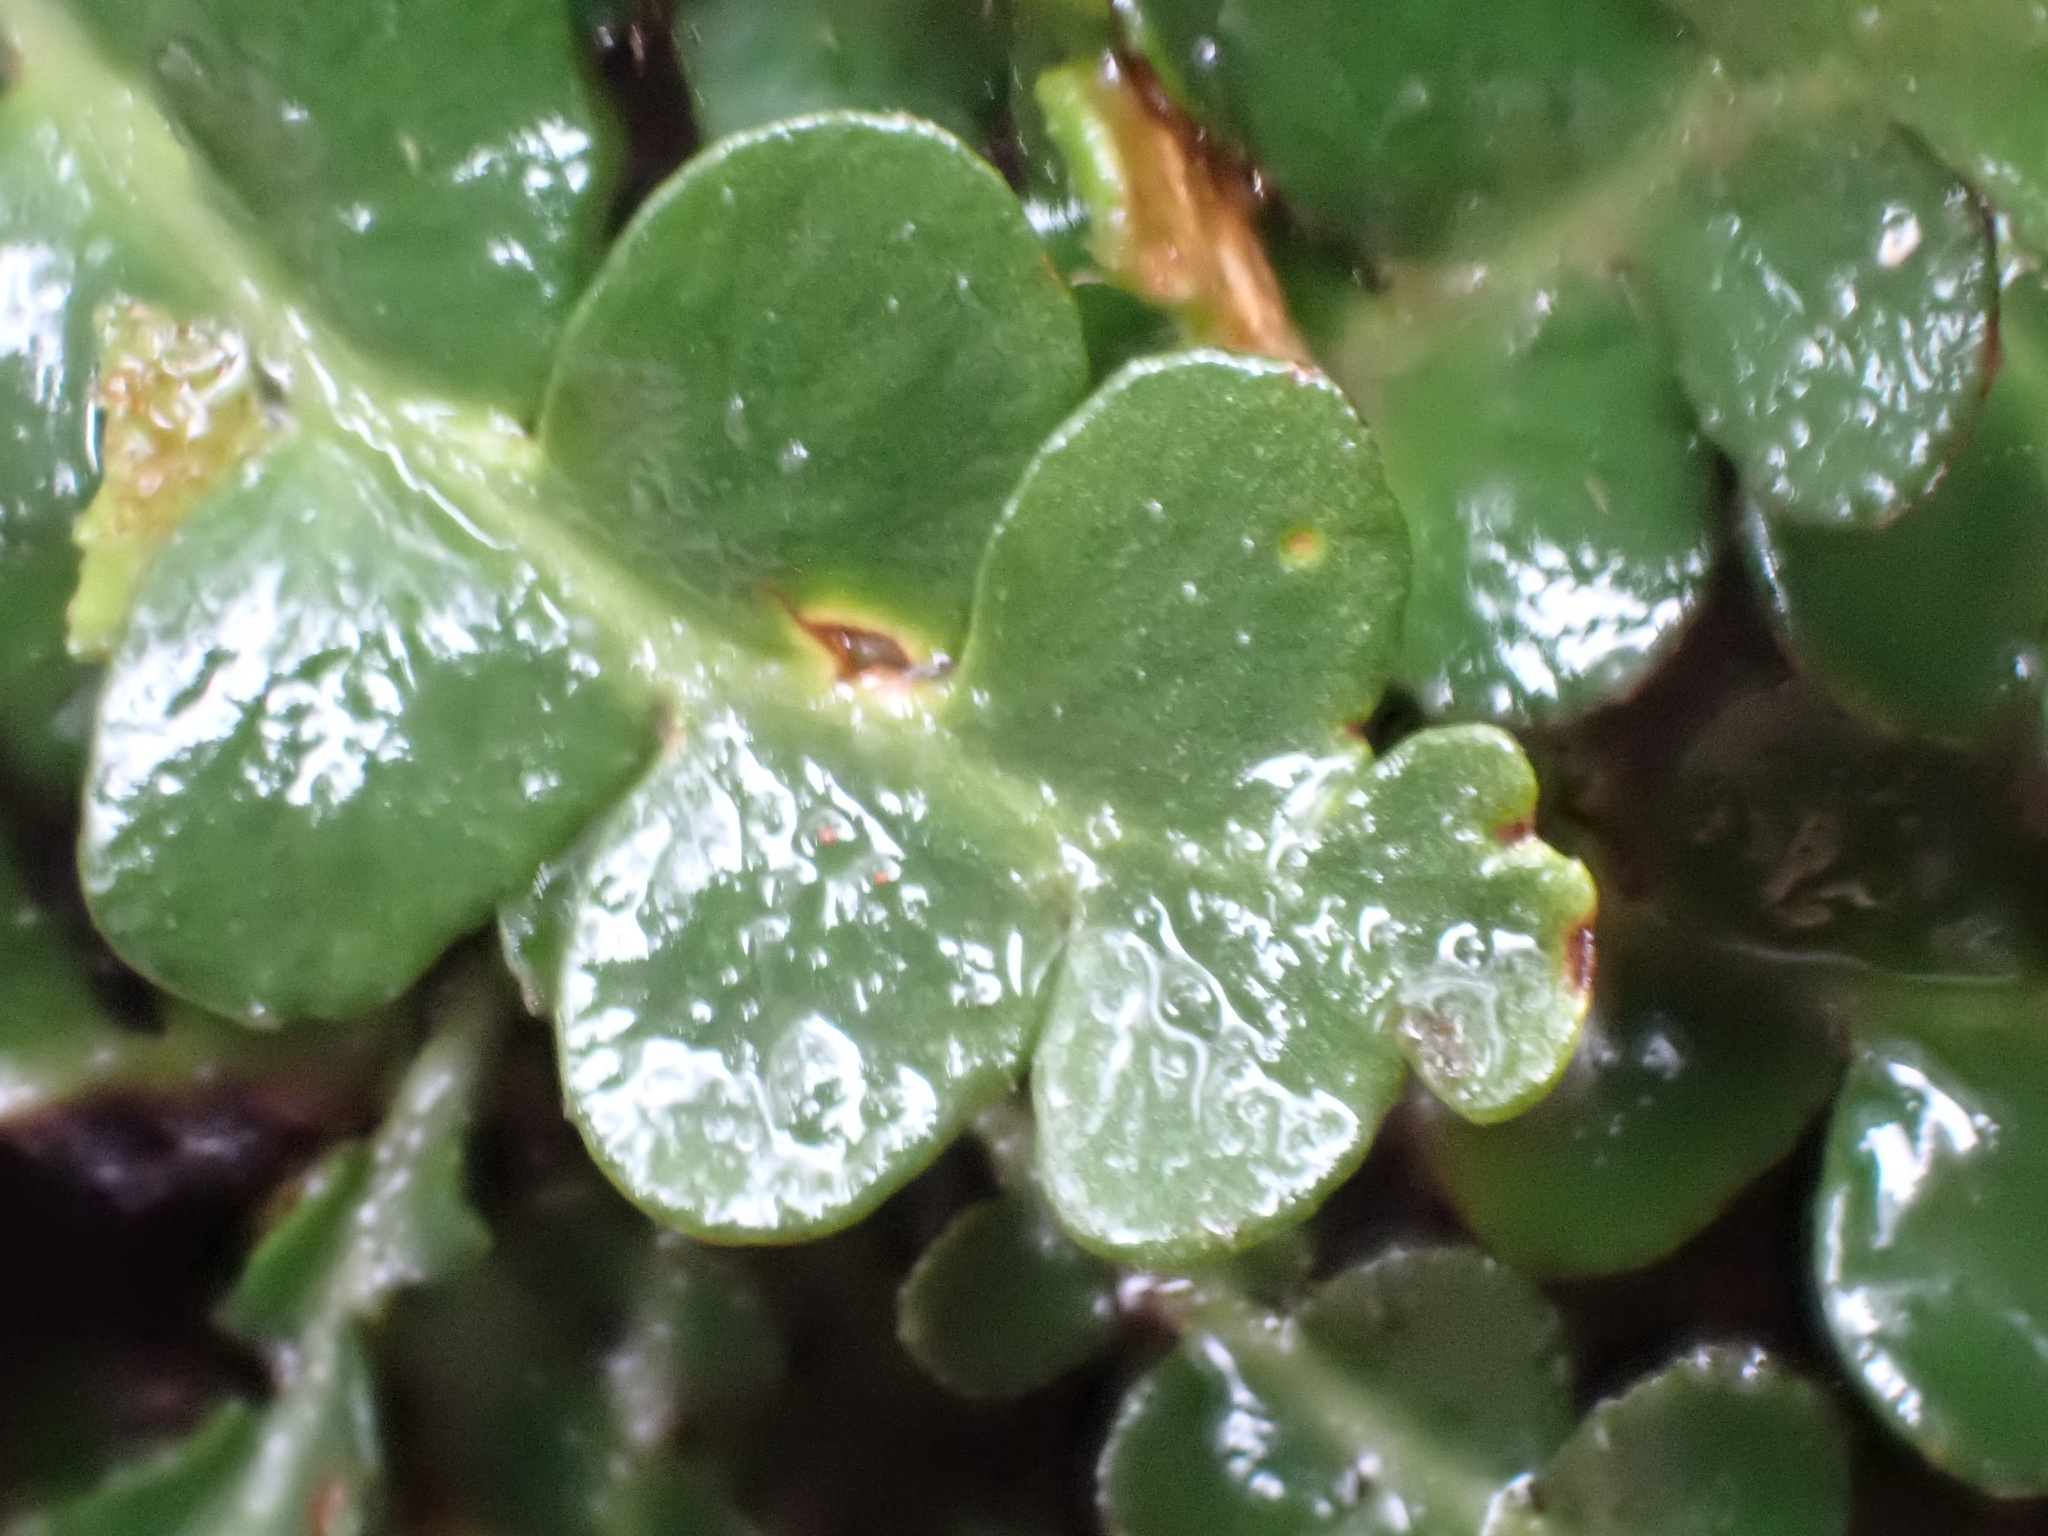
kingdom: Plantae
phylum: Tracheophyta
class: Polypodiopsida
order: Polypodiales
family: Aspleniaceae
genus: Asplenium
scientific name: Asplenium ceterach
